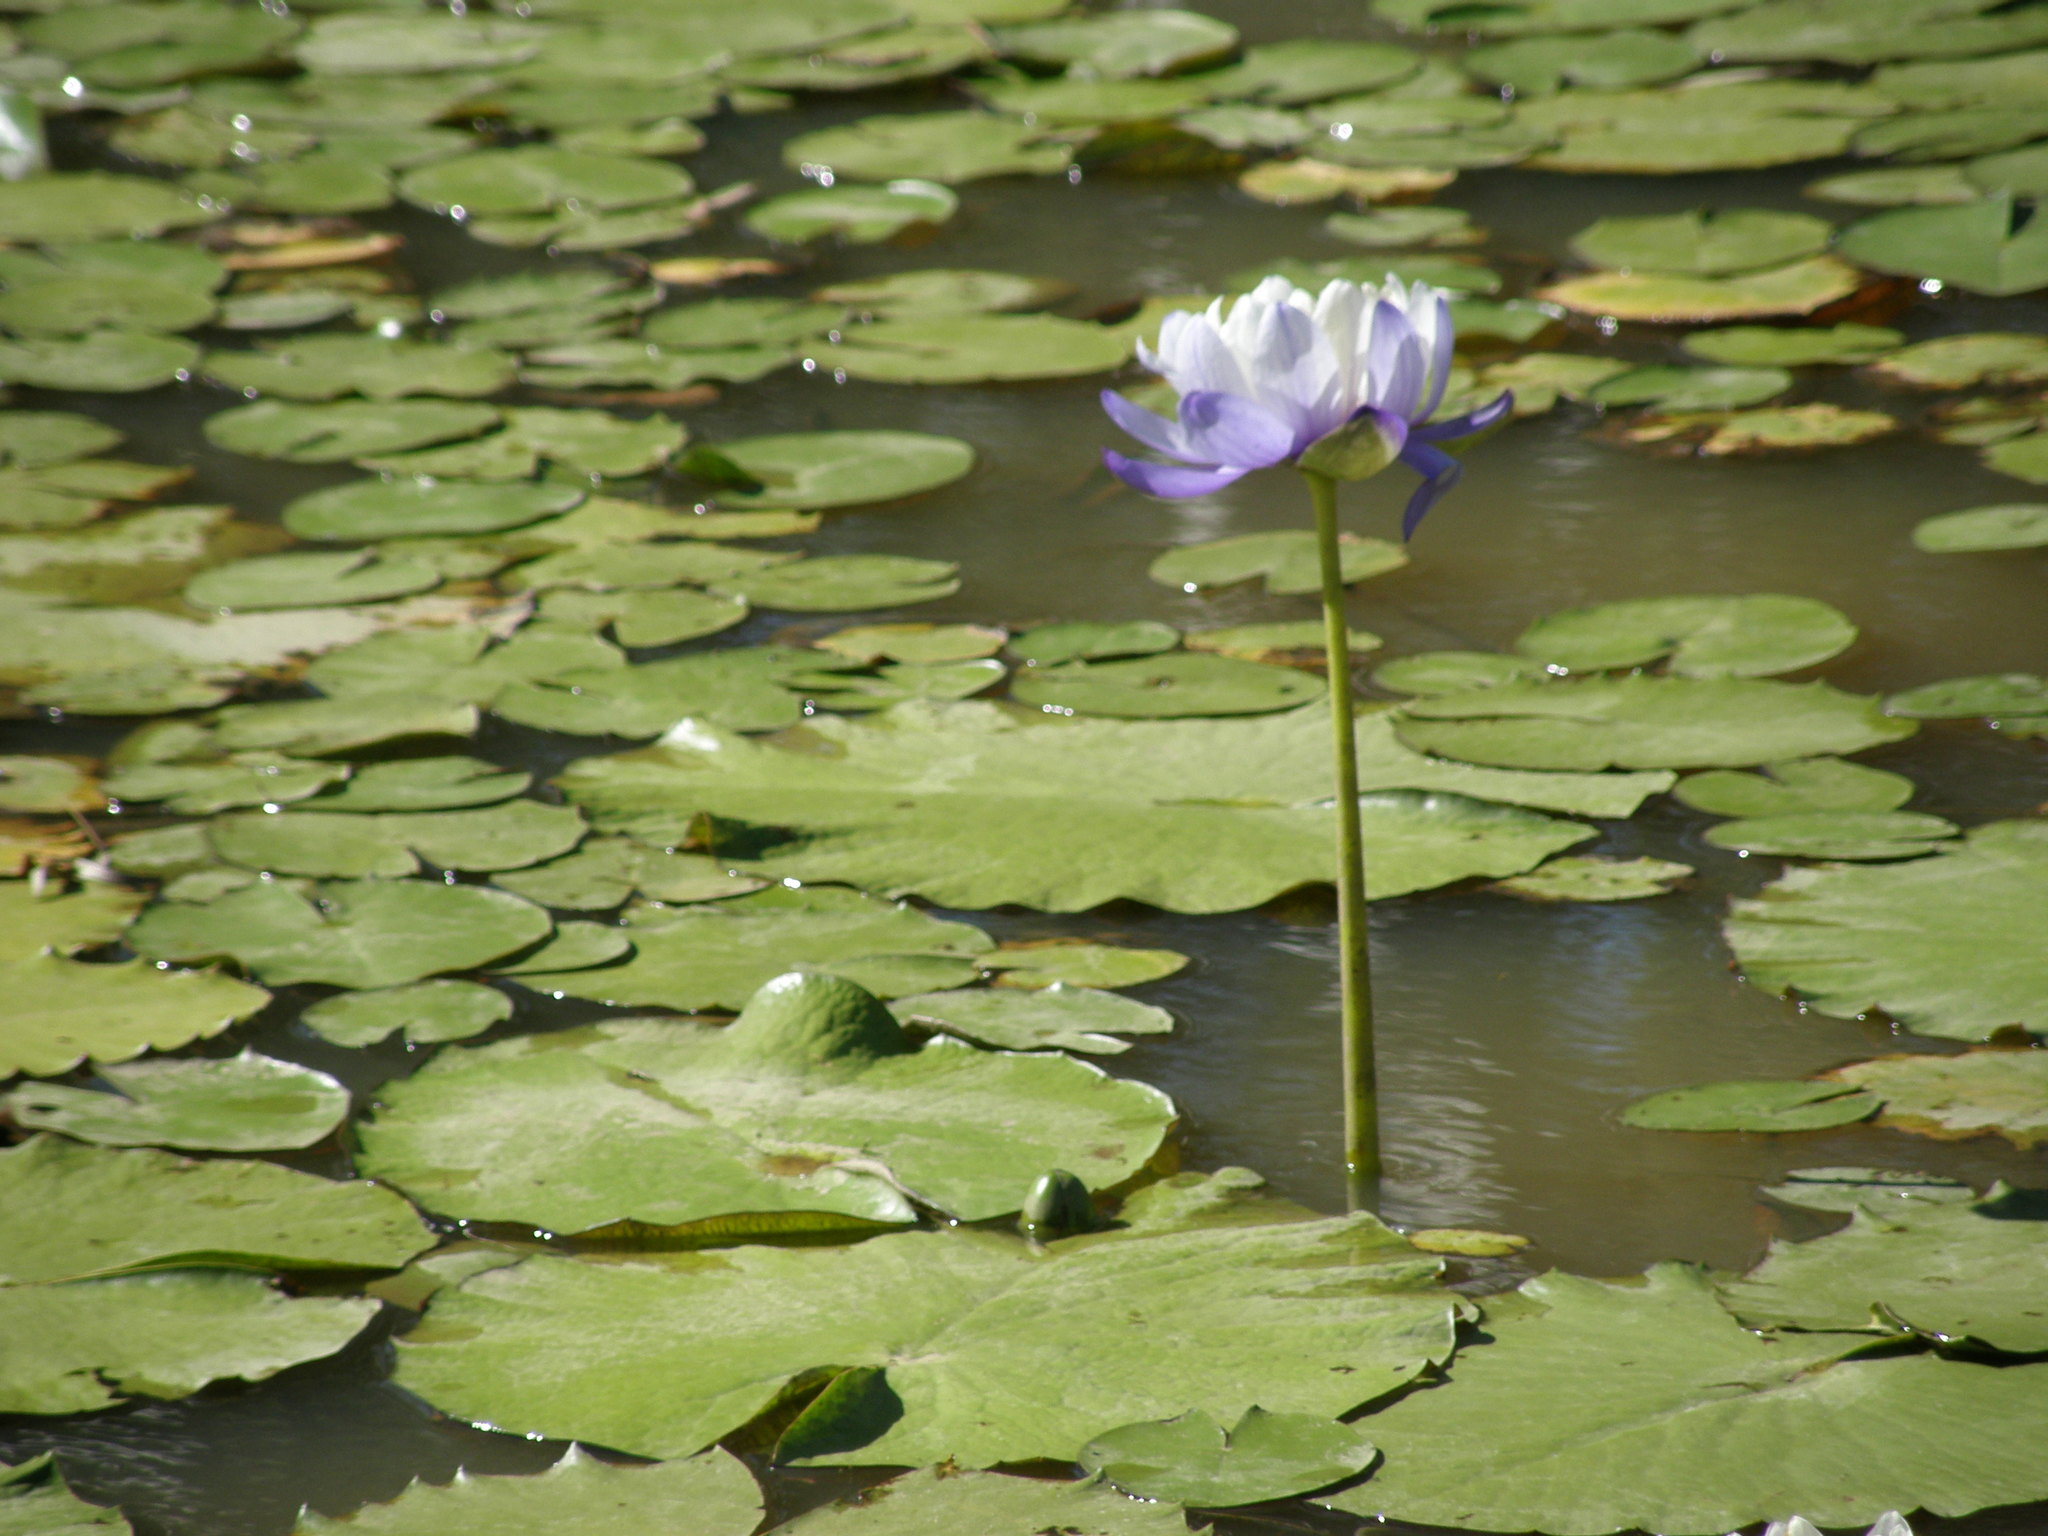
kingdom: Plantae
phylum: Tracheophyta
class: Magnoliopsida
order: Nymphaeales
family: Nymphaeaceae
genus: Nymphaea
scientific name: Nymphaea immutabilis
